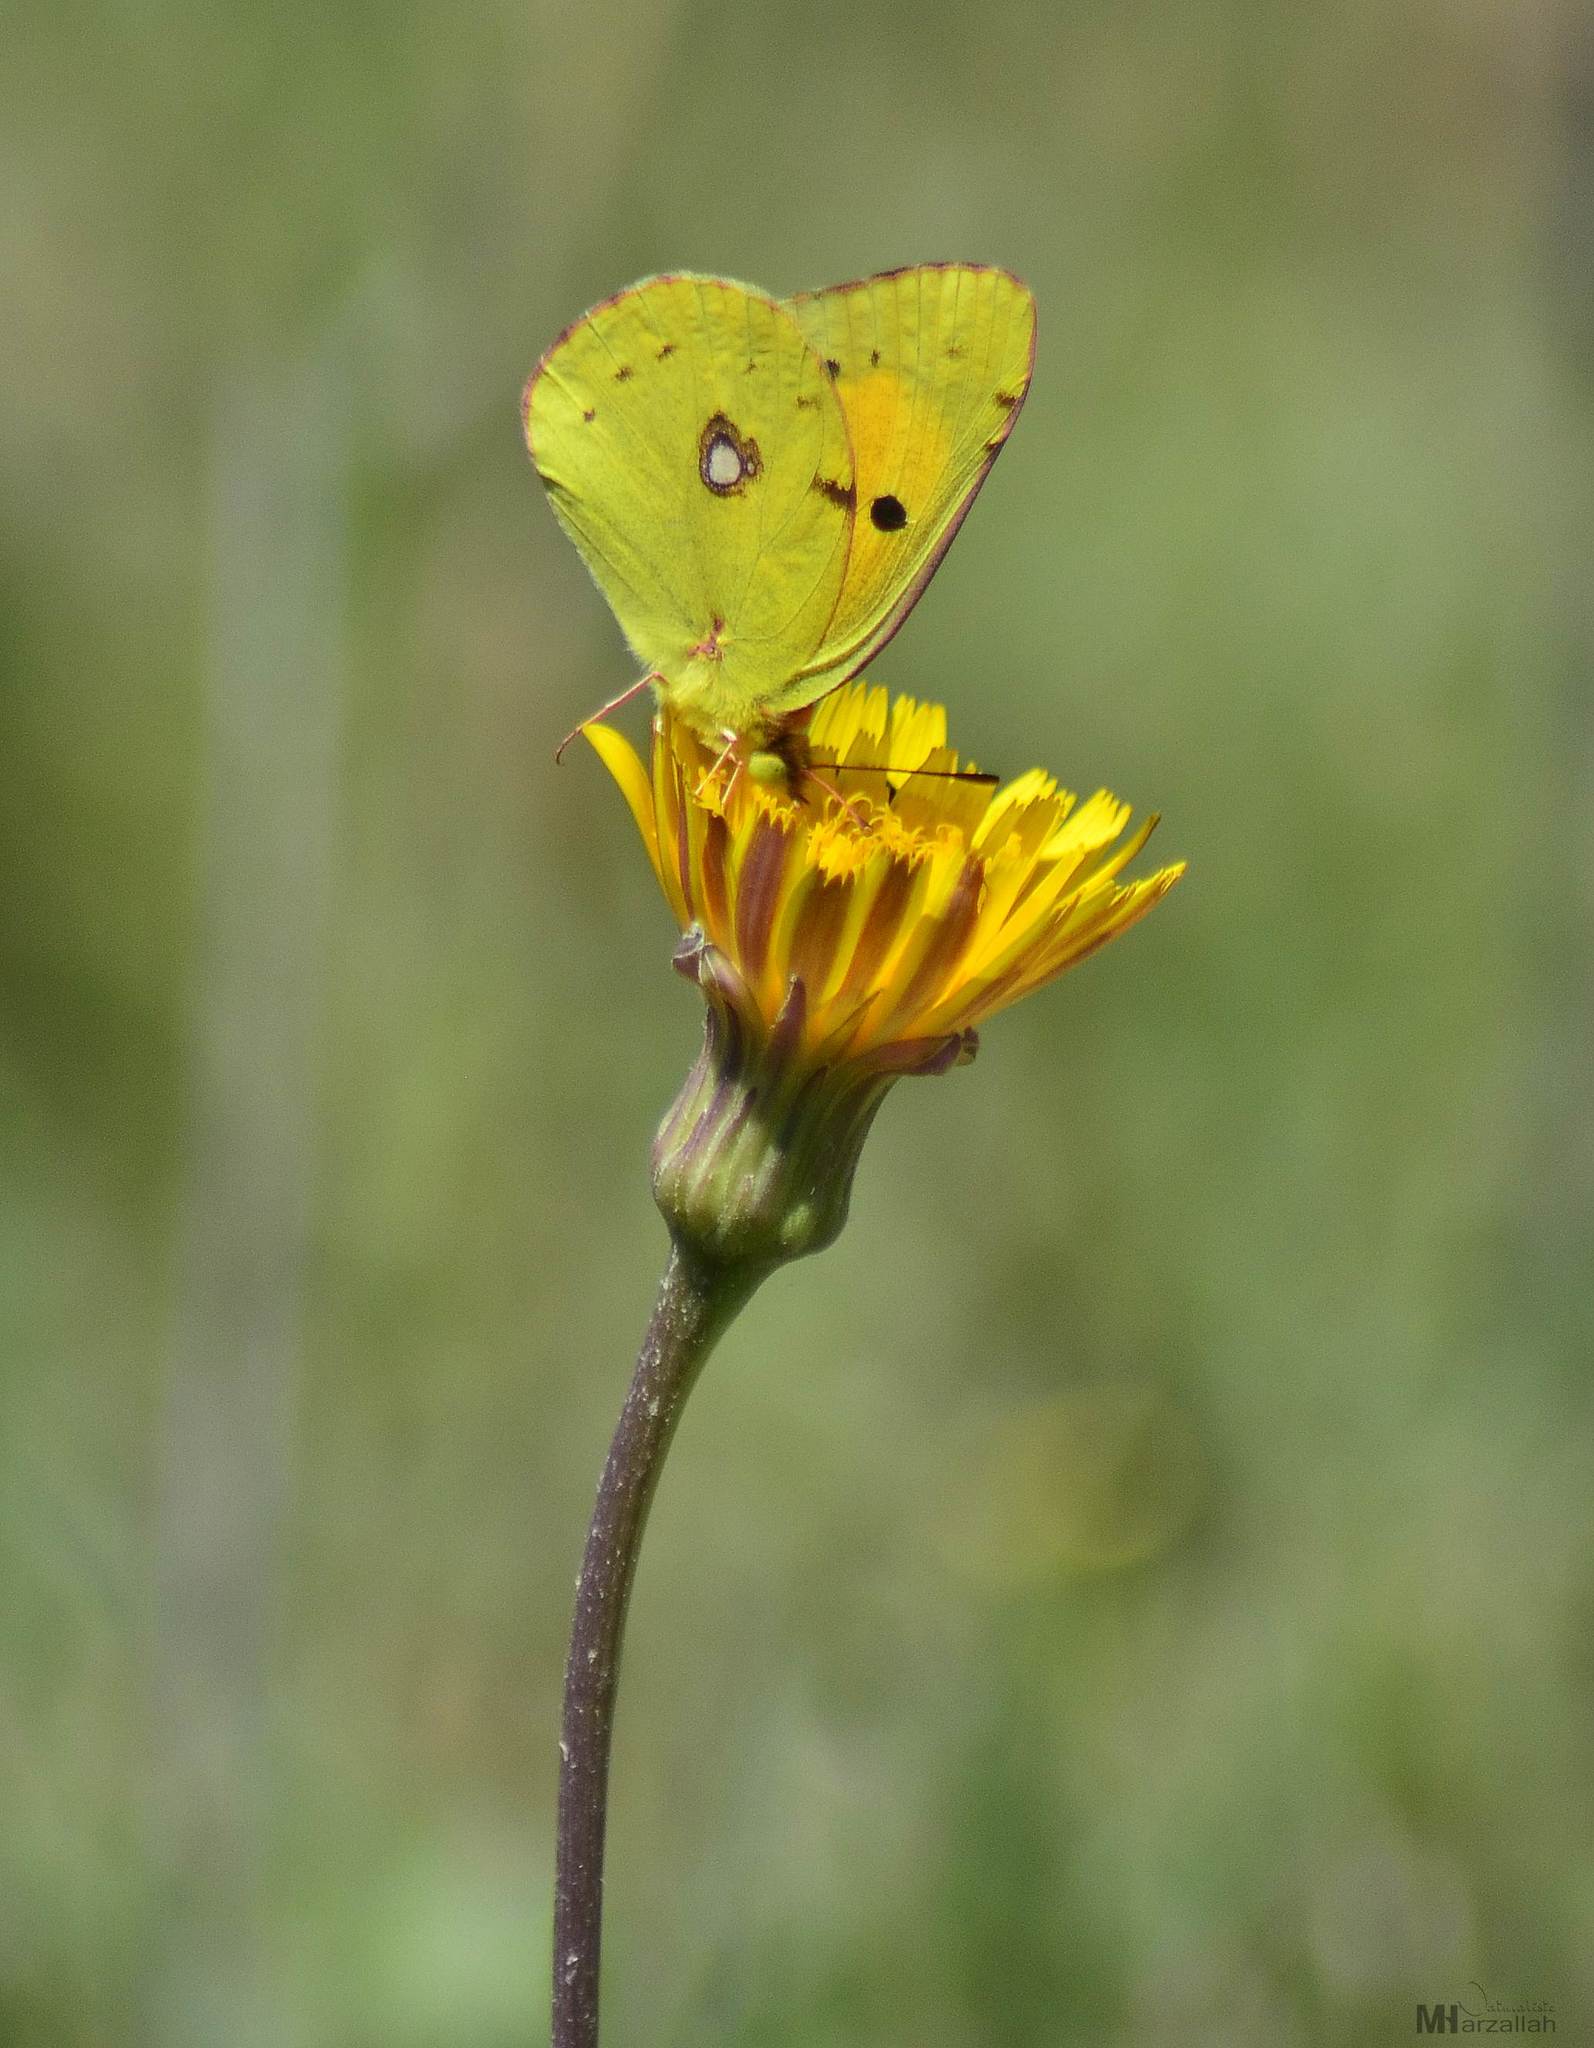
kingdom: Animalia
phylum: Arthropoda
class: Insecta
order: Lepidoptera
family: Pieridae
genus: Colias
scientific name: Colias croceus
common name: Clouded yellow
